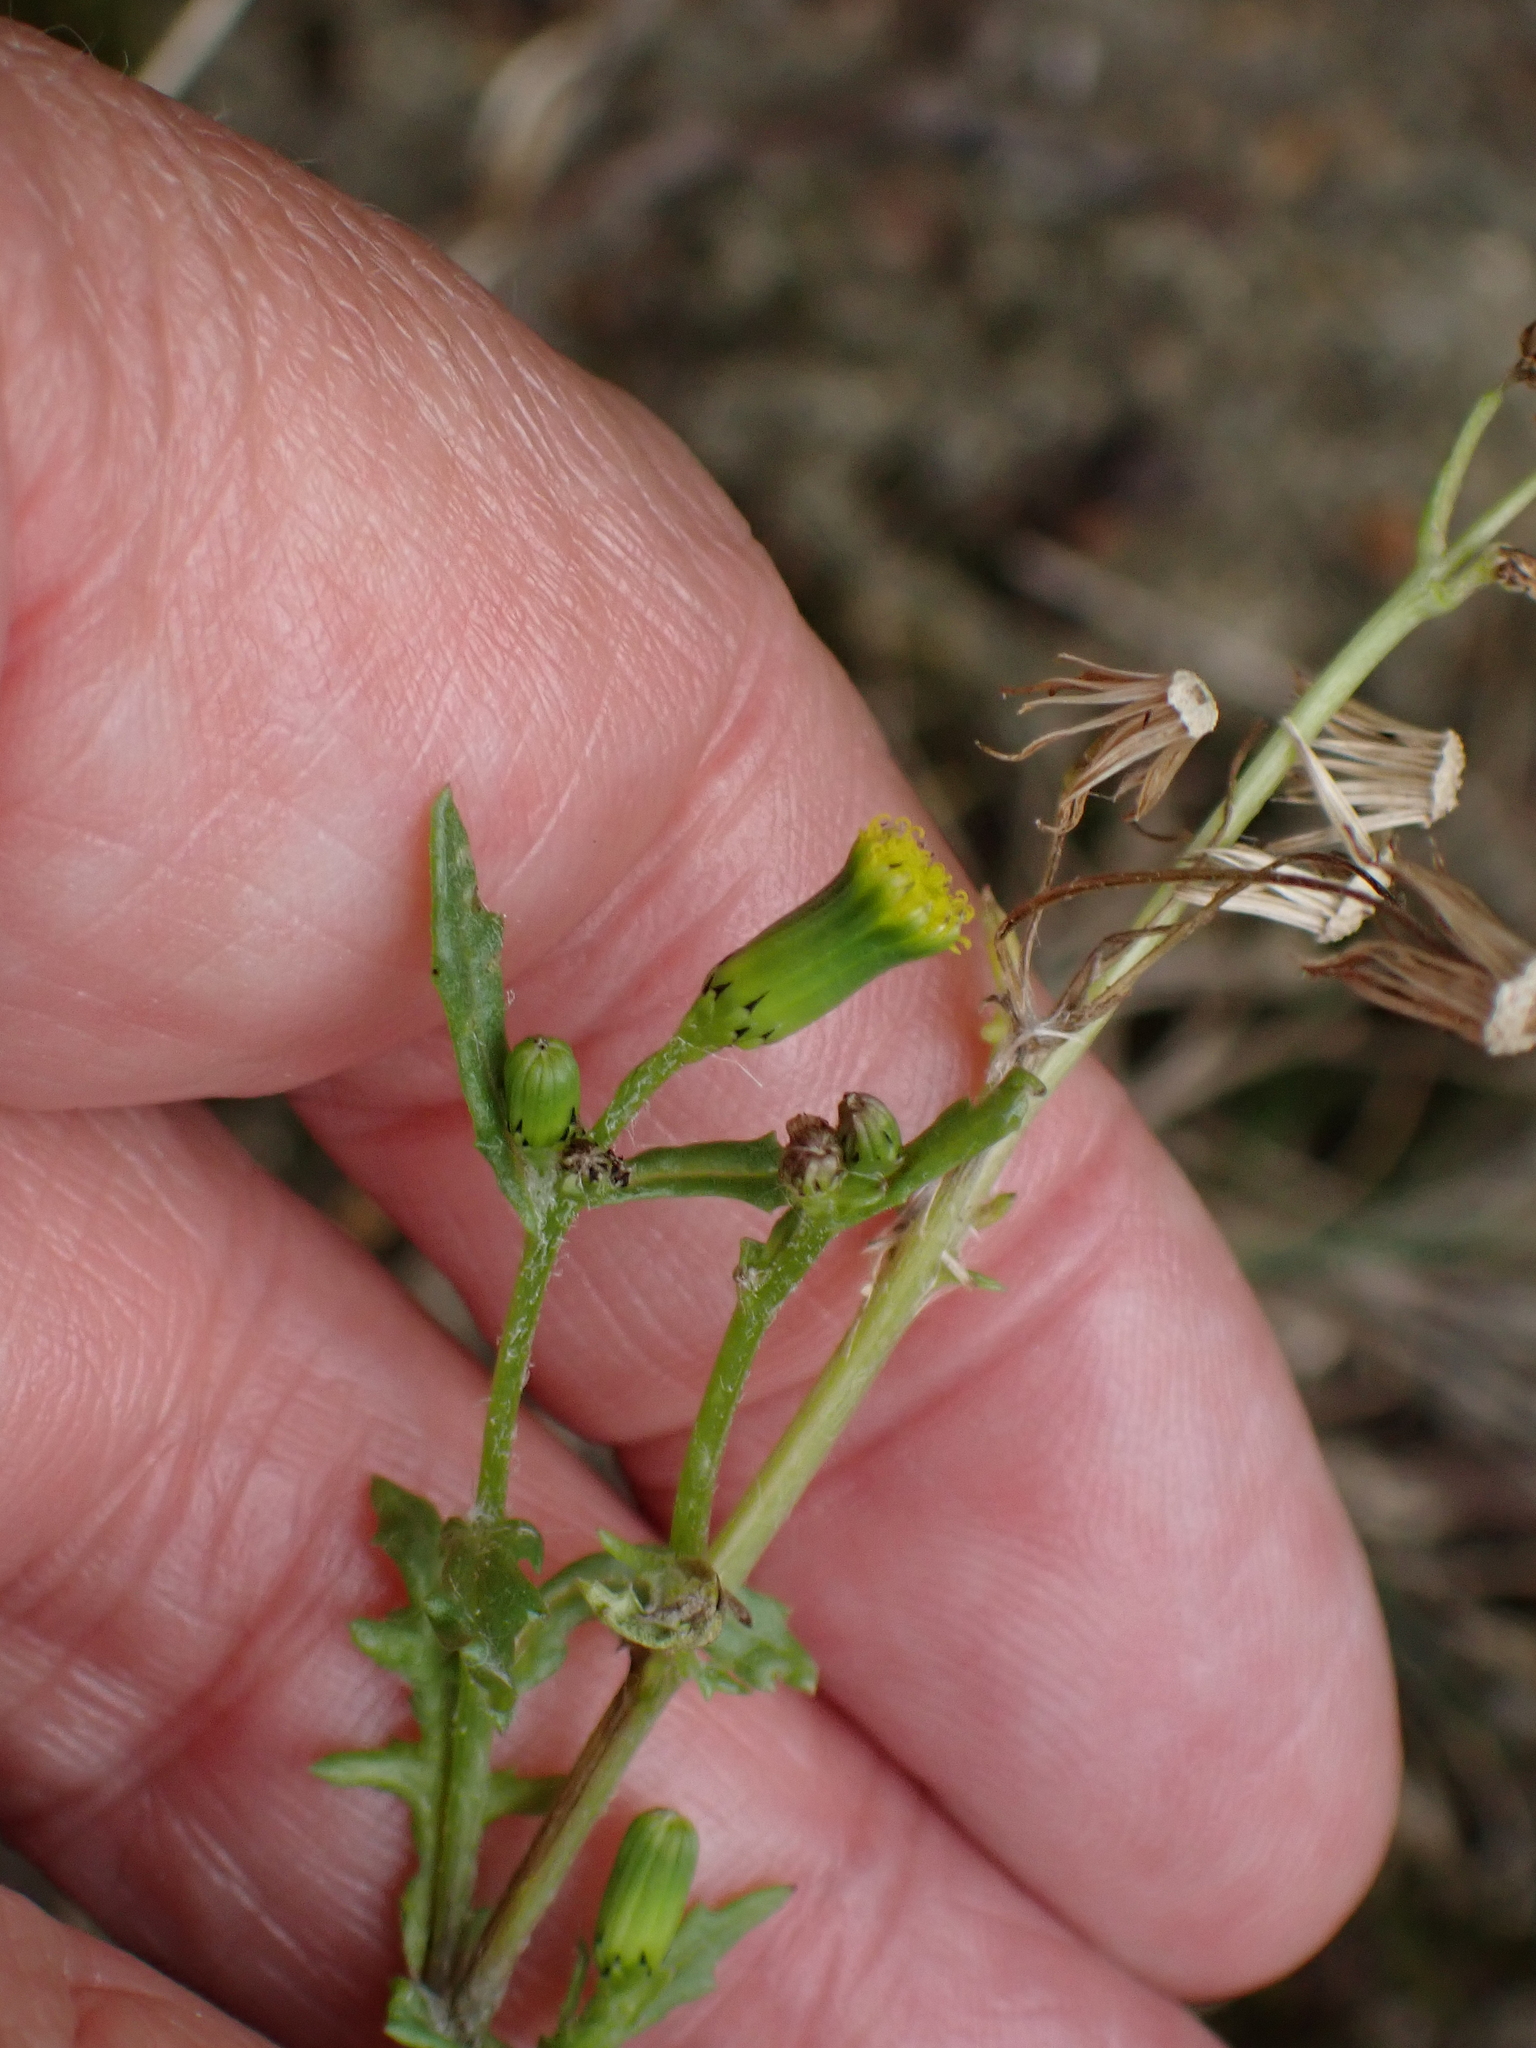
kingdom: Plantae
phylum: Tracheophyta
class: Magnoliopsida
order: Asterales
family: Asteraceae
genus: Senecio
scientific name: Senecio vulgaris
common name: Old-man-in-the-spring
